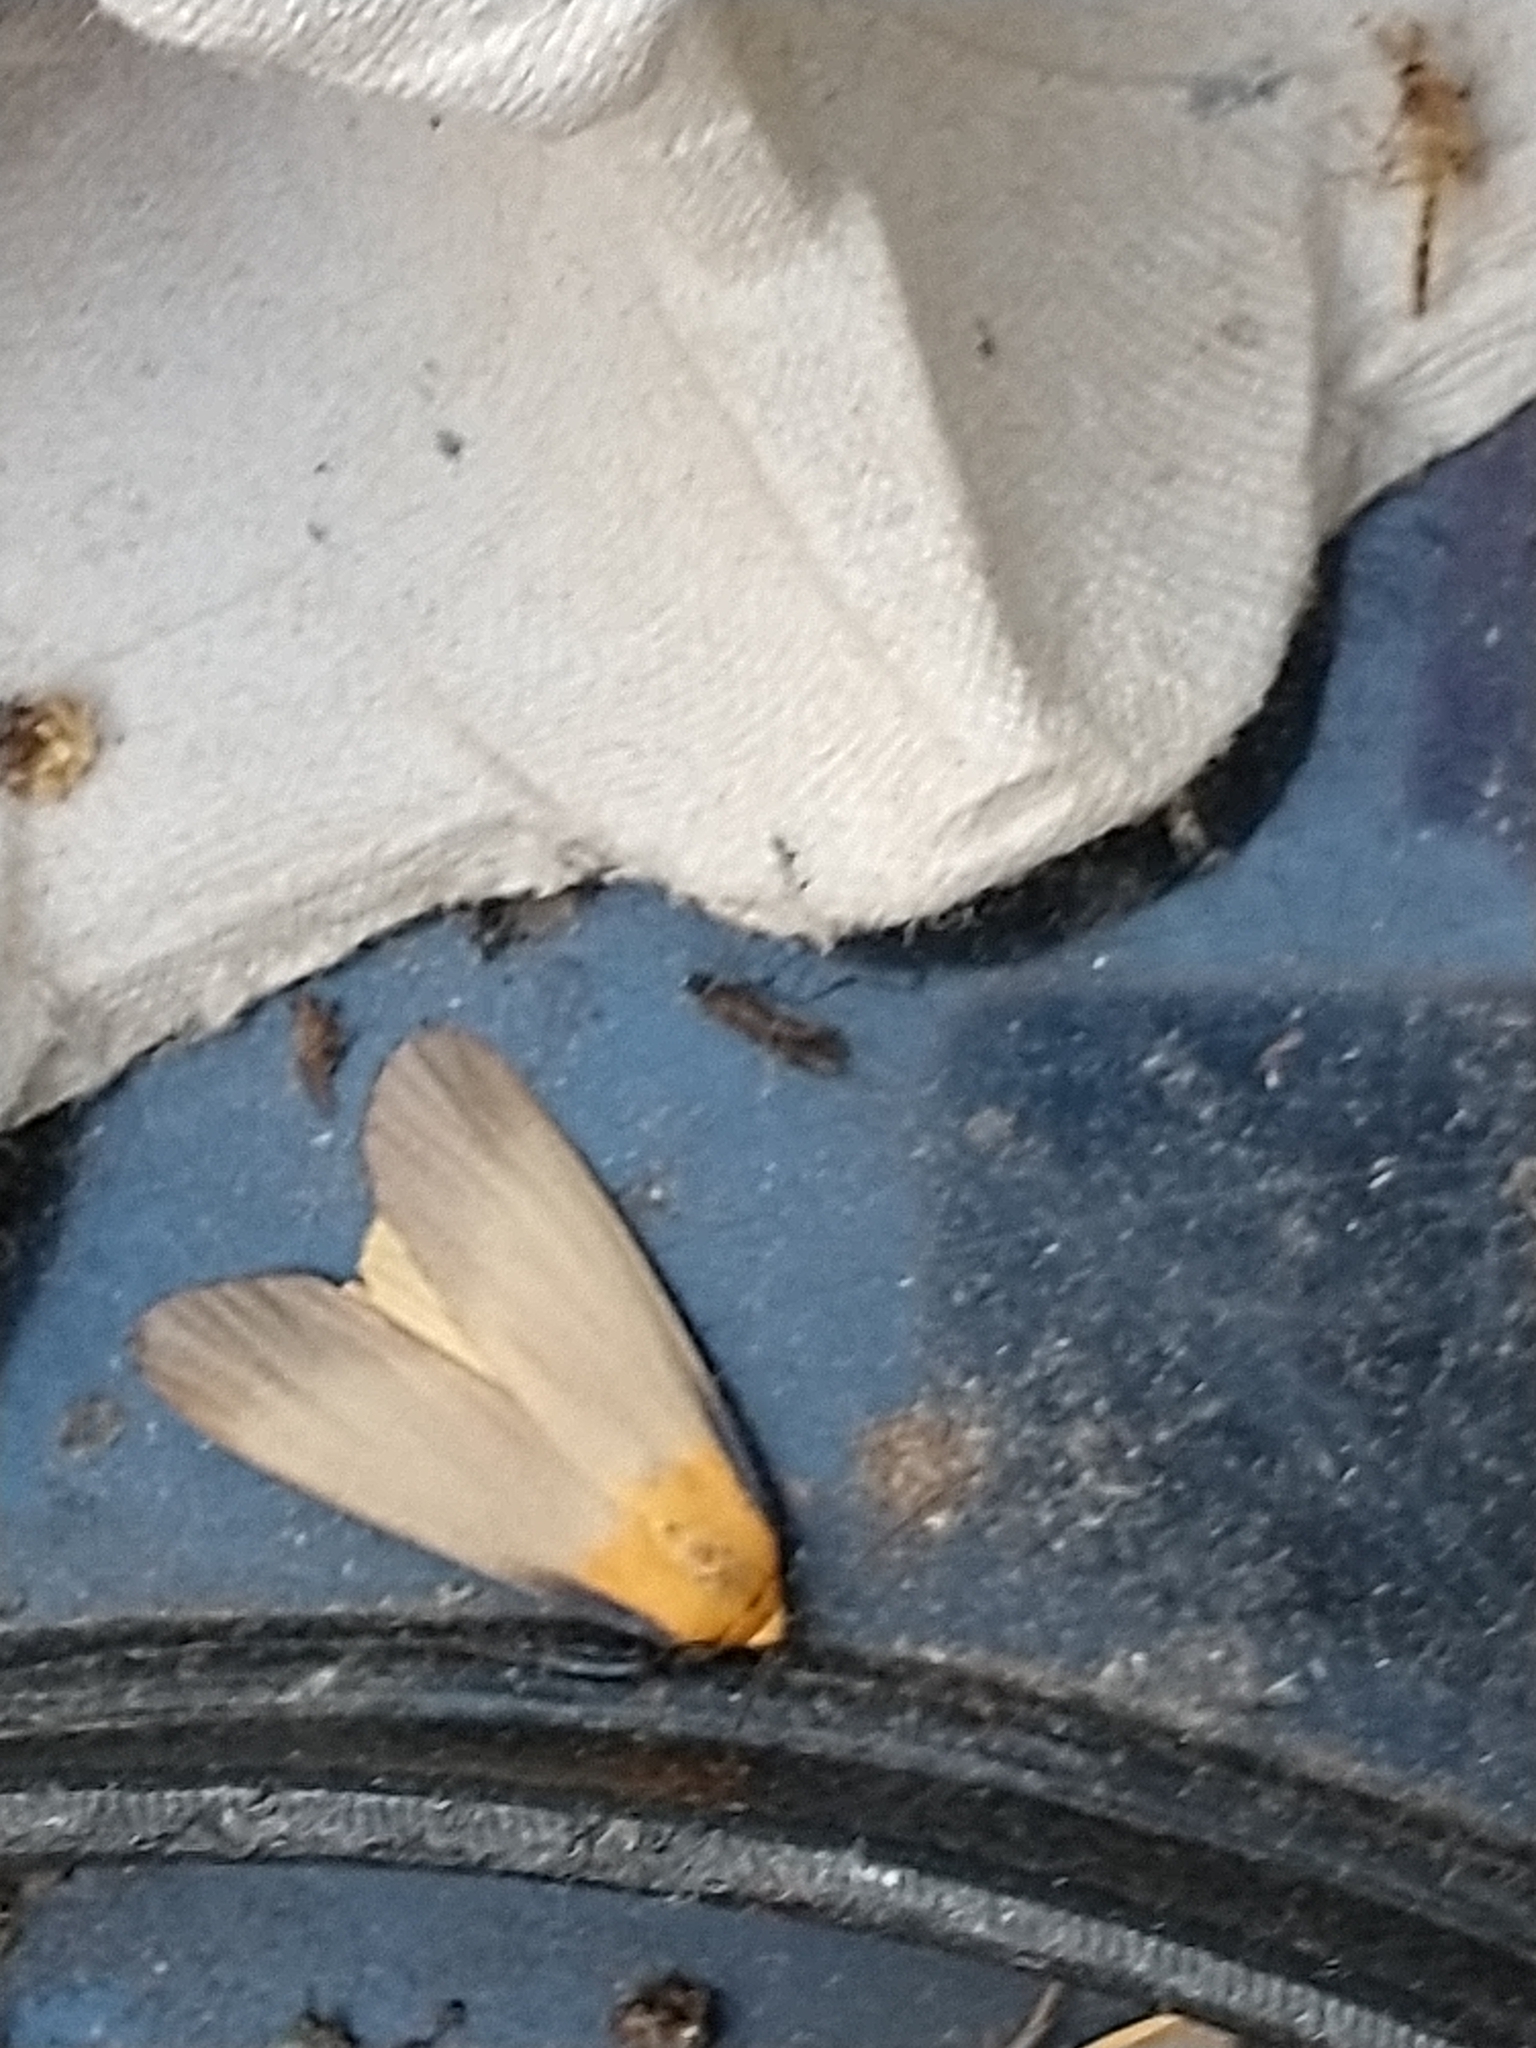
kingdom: Animalia
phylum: Arthropoda
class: Insecta
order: Lepidoptera
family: Erebidae
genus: Lithosia
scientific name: Lithosia quadra
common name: Four-spotted footman
